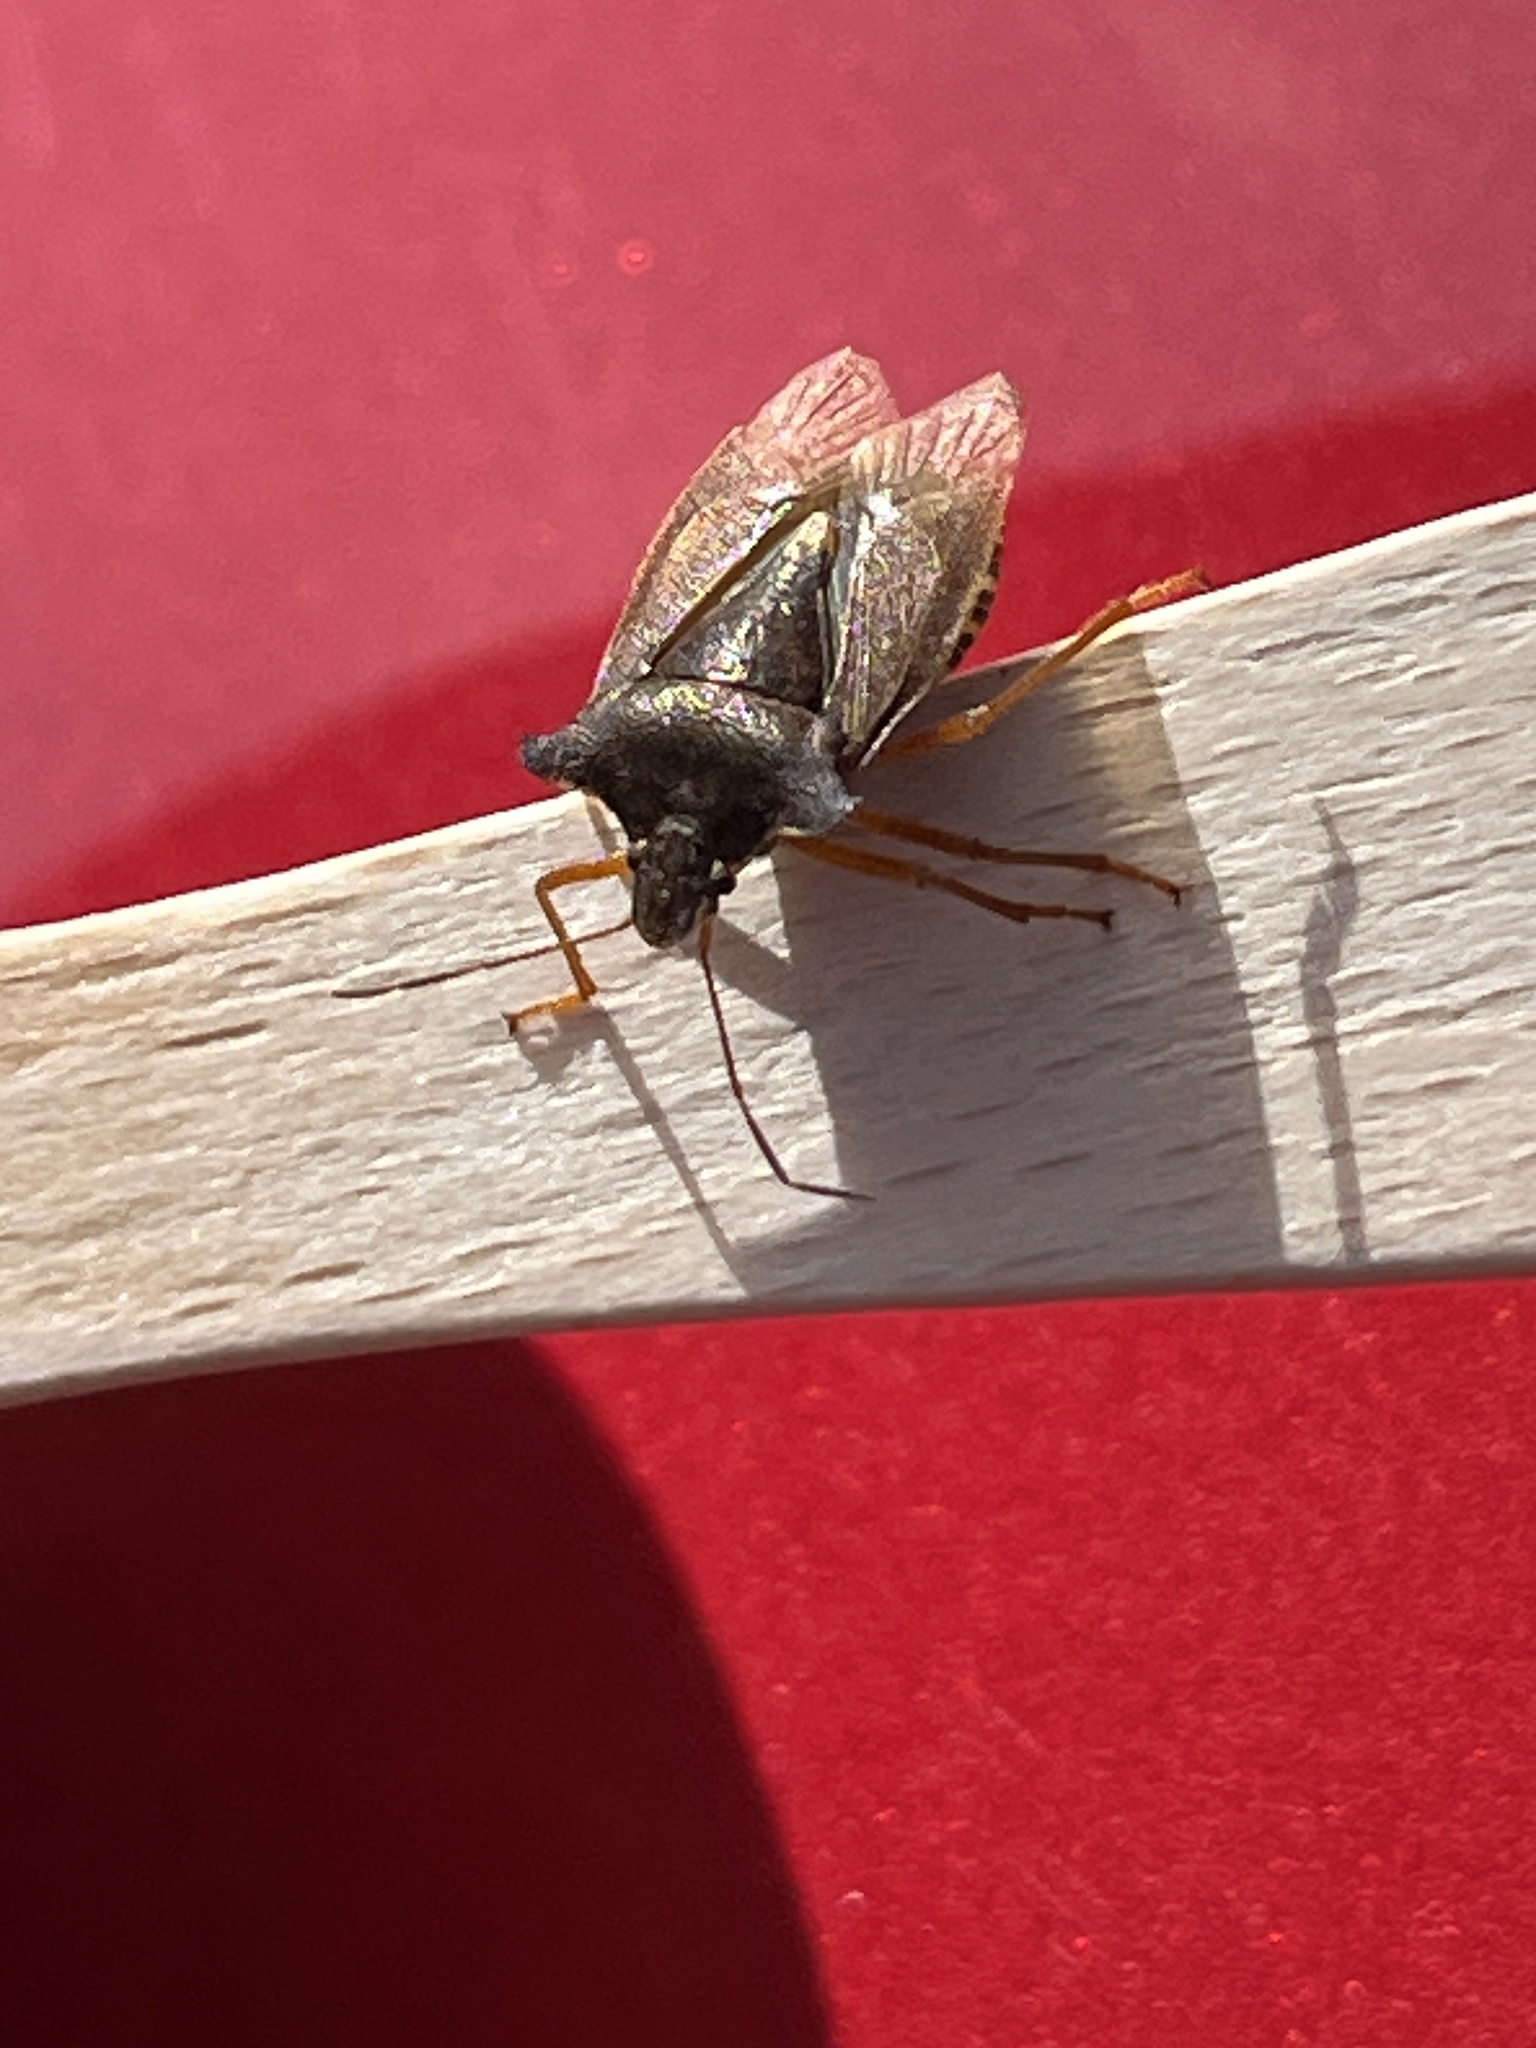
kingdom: Animalia
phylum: Arthropoda
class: Insecta
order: Hemiptera
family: Pentatomidae
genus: Pentatoma
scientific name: Pentatoma rufipes
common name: Forest bug
